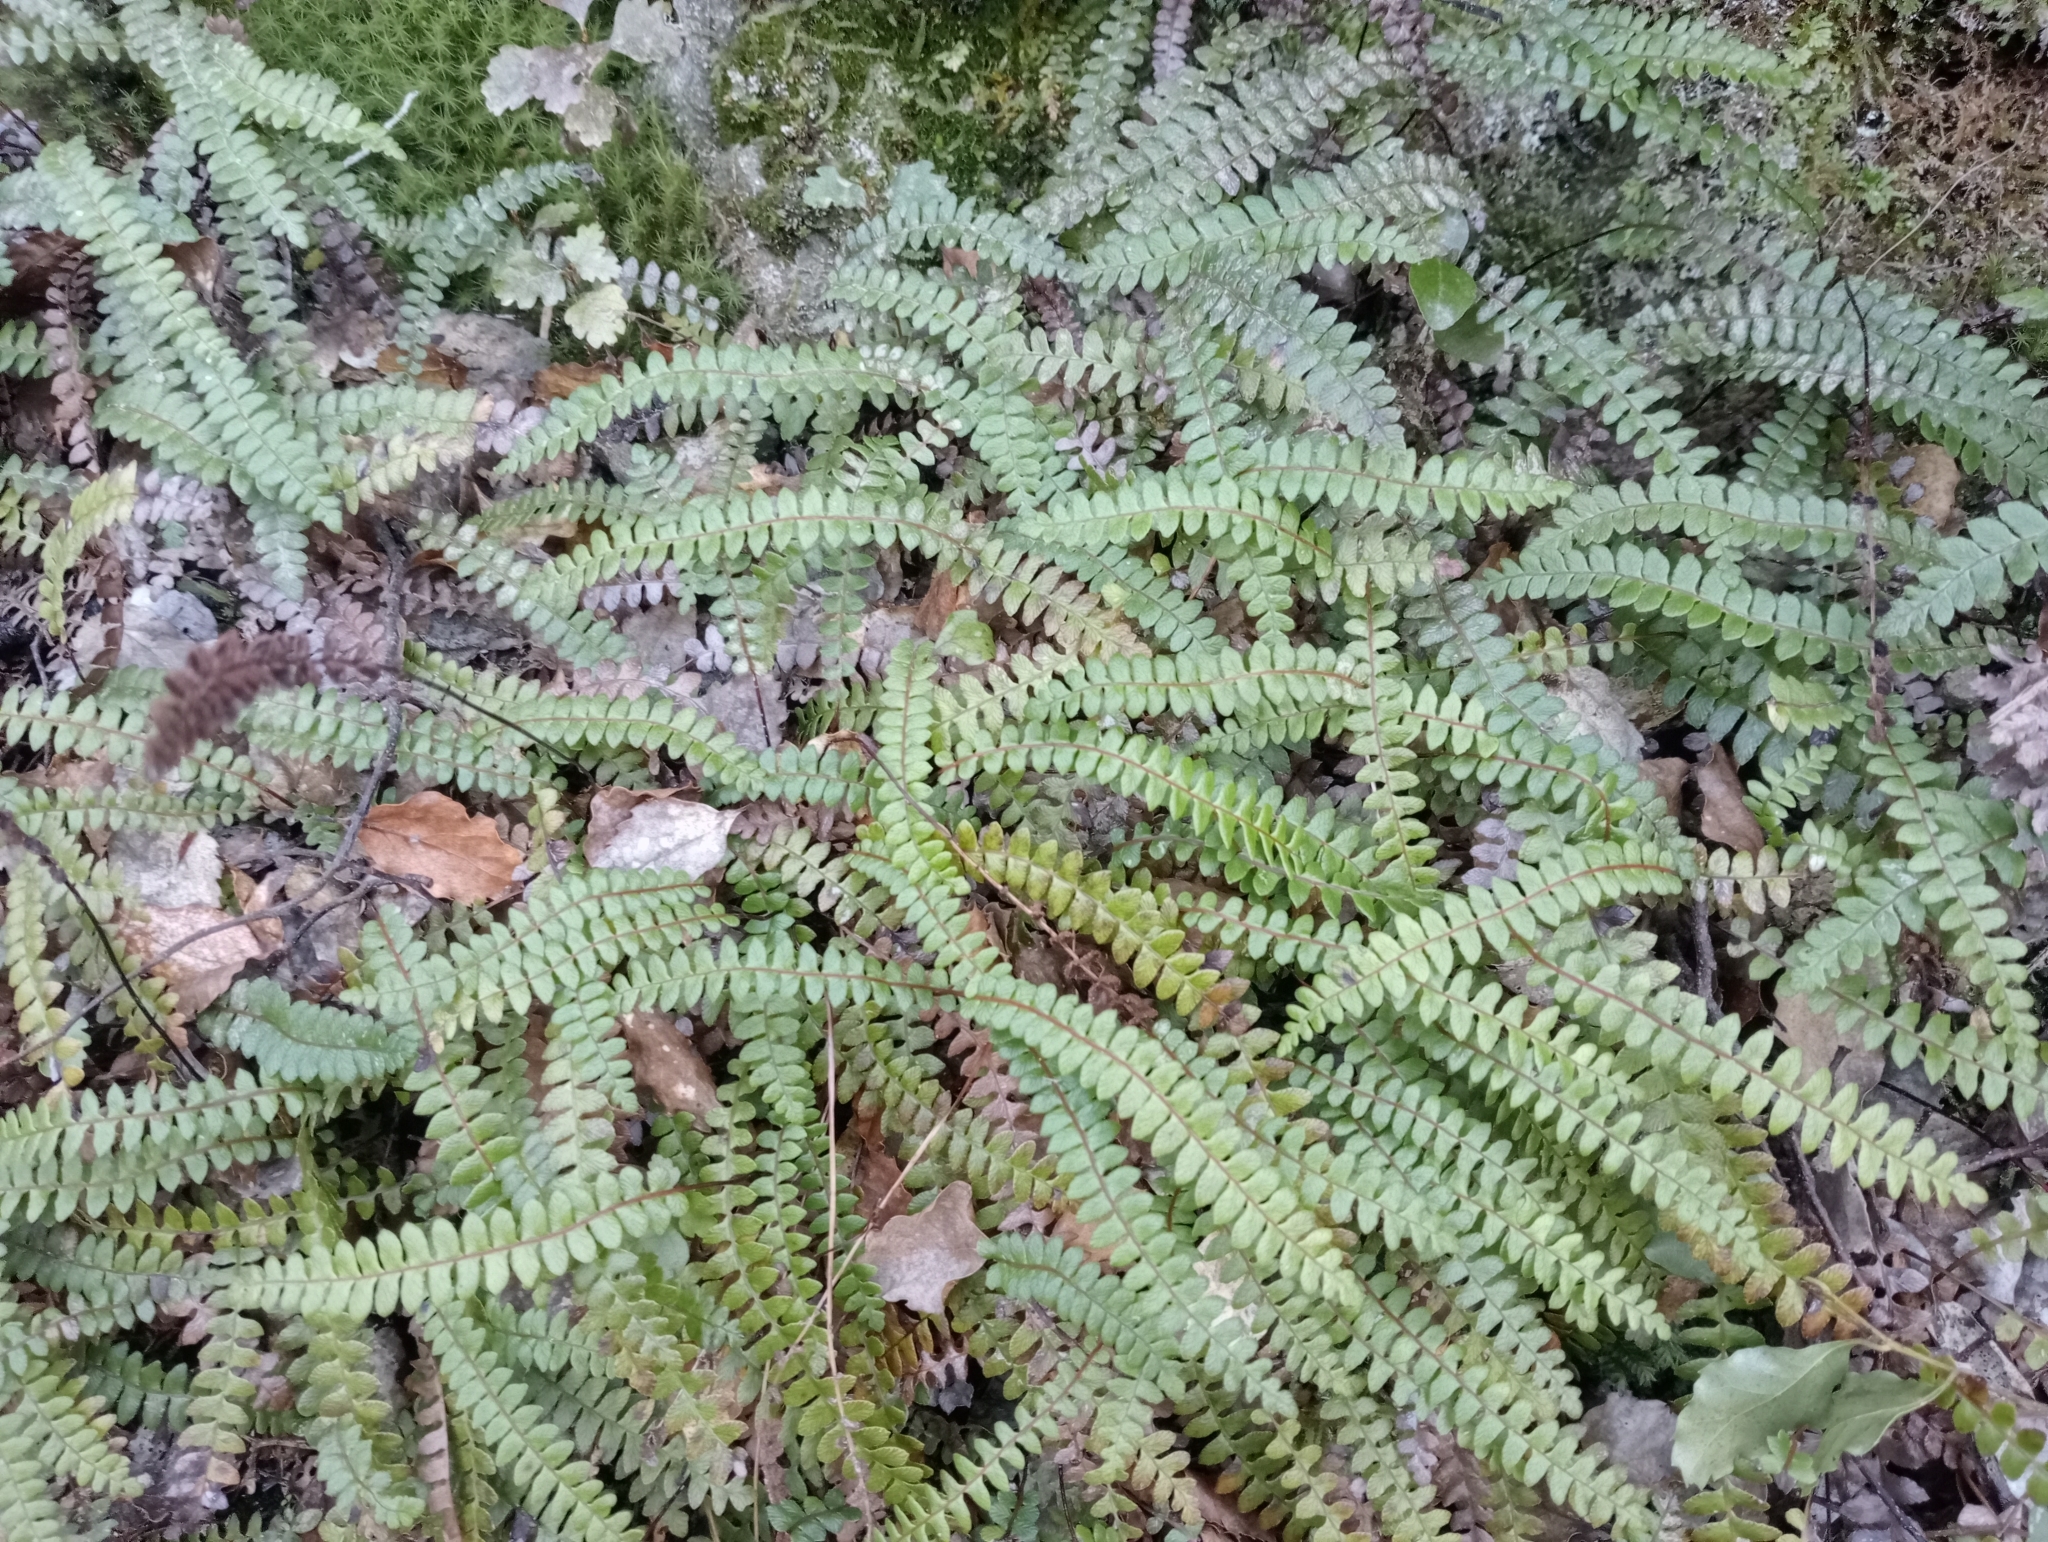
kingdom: Plantae
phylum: Tracheophyta
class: Polypodiopsida
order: Polypodiales
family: Blechnaceae
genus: Austroblechnum
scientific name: Austroblechnum penna-marina
